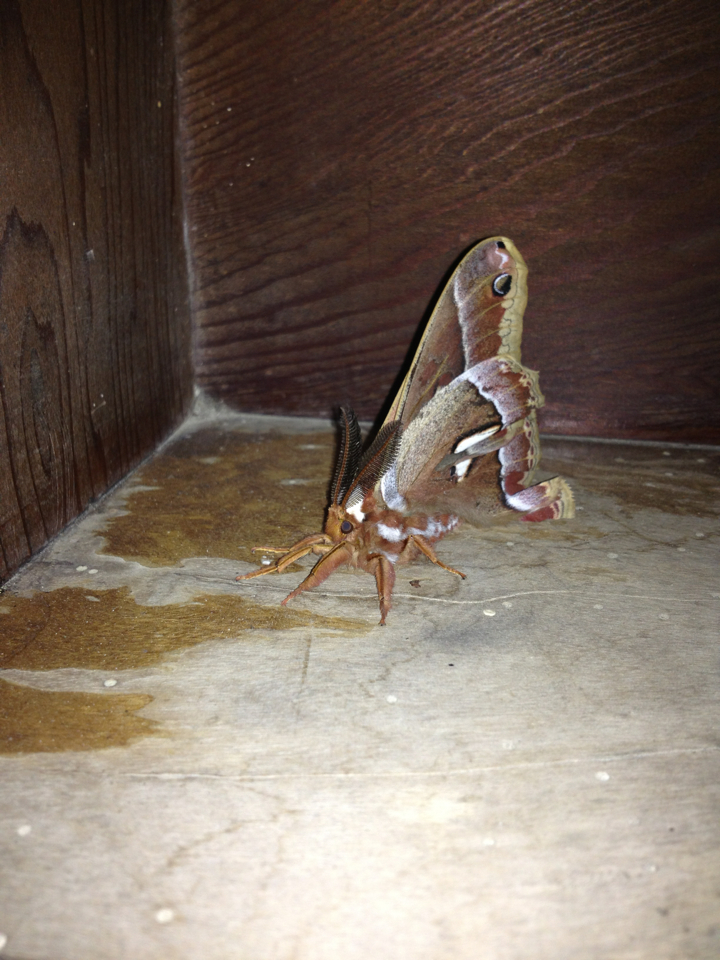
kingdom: Animalia
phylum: Arthropoda
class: Insecta
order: Lepidoptera
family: Saturniidae
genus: Hyalophora
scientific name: Hyalophora euryalus
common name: Ceanothus silkmoth
